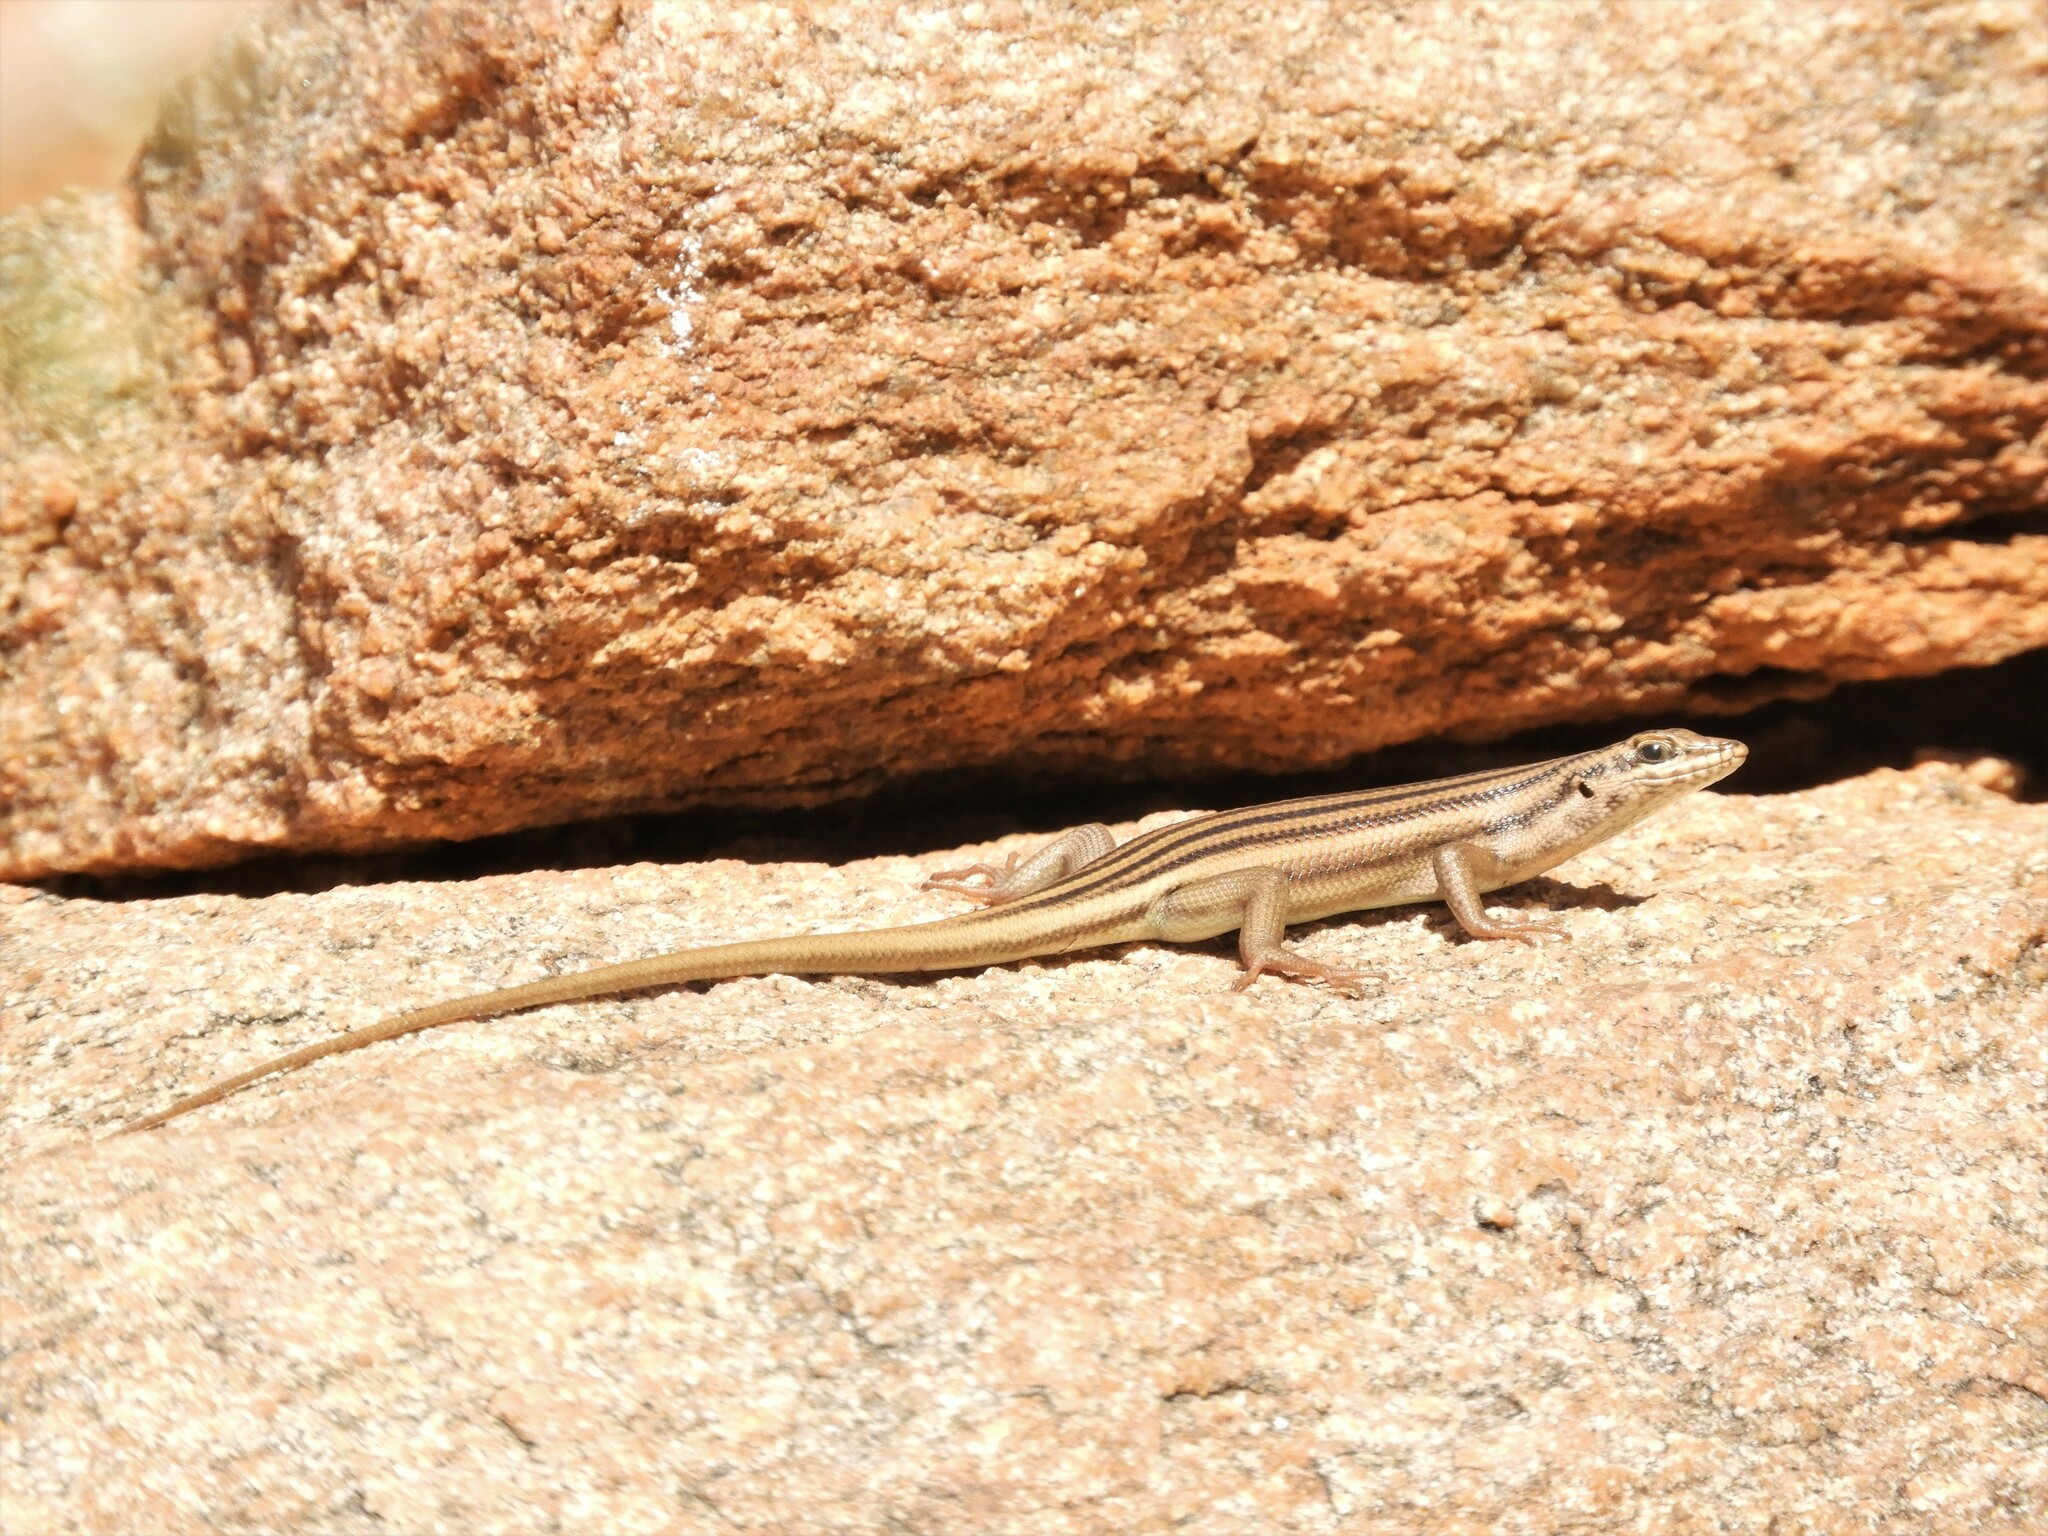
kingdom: Animalia
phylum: Chordata
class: Squamata
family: Scincidae
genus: Trachylepis
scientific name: Trachylepis sulcata
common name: Western rock skink
